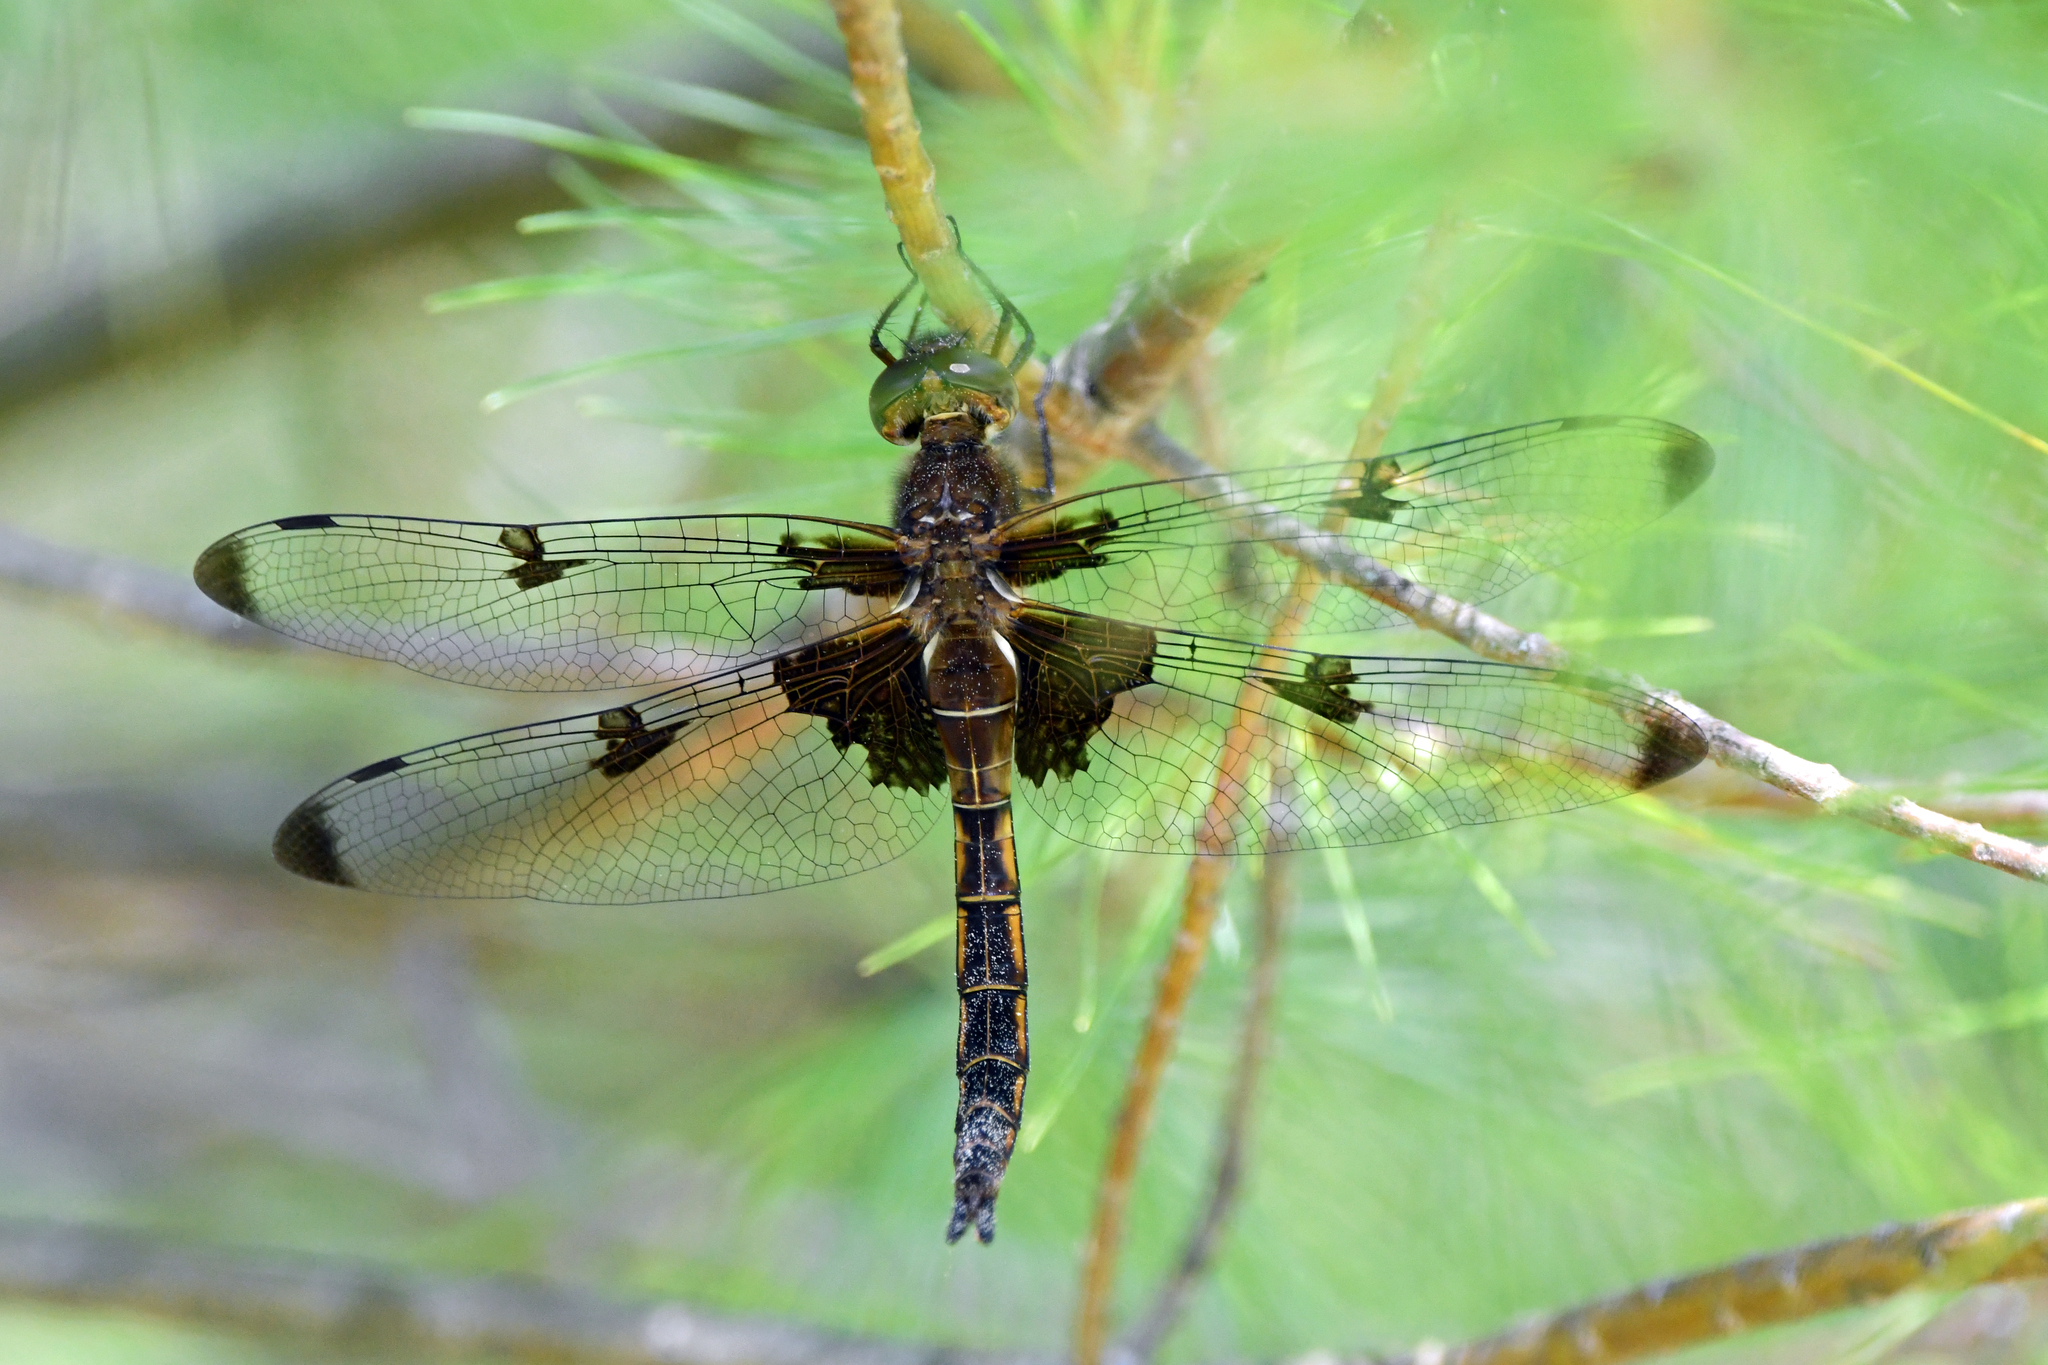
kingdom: Animalia
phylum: Arthropoda
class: Insecta
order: Odonata
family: Corduliidae
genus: Epitheca
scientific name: Epitheca princeps
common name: Prince baskettail
